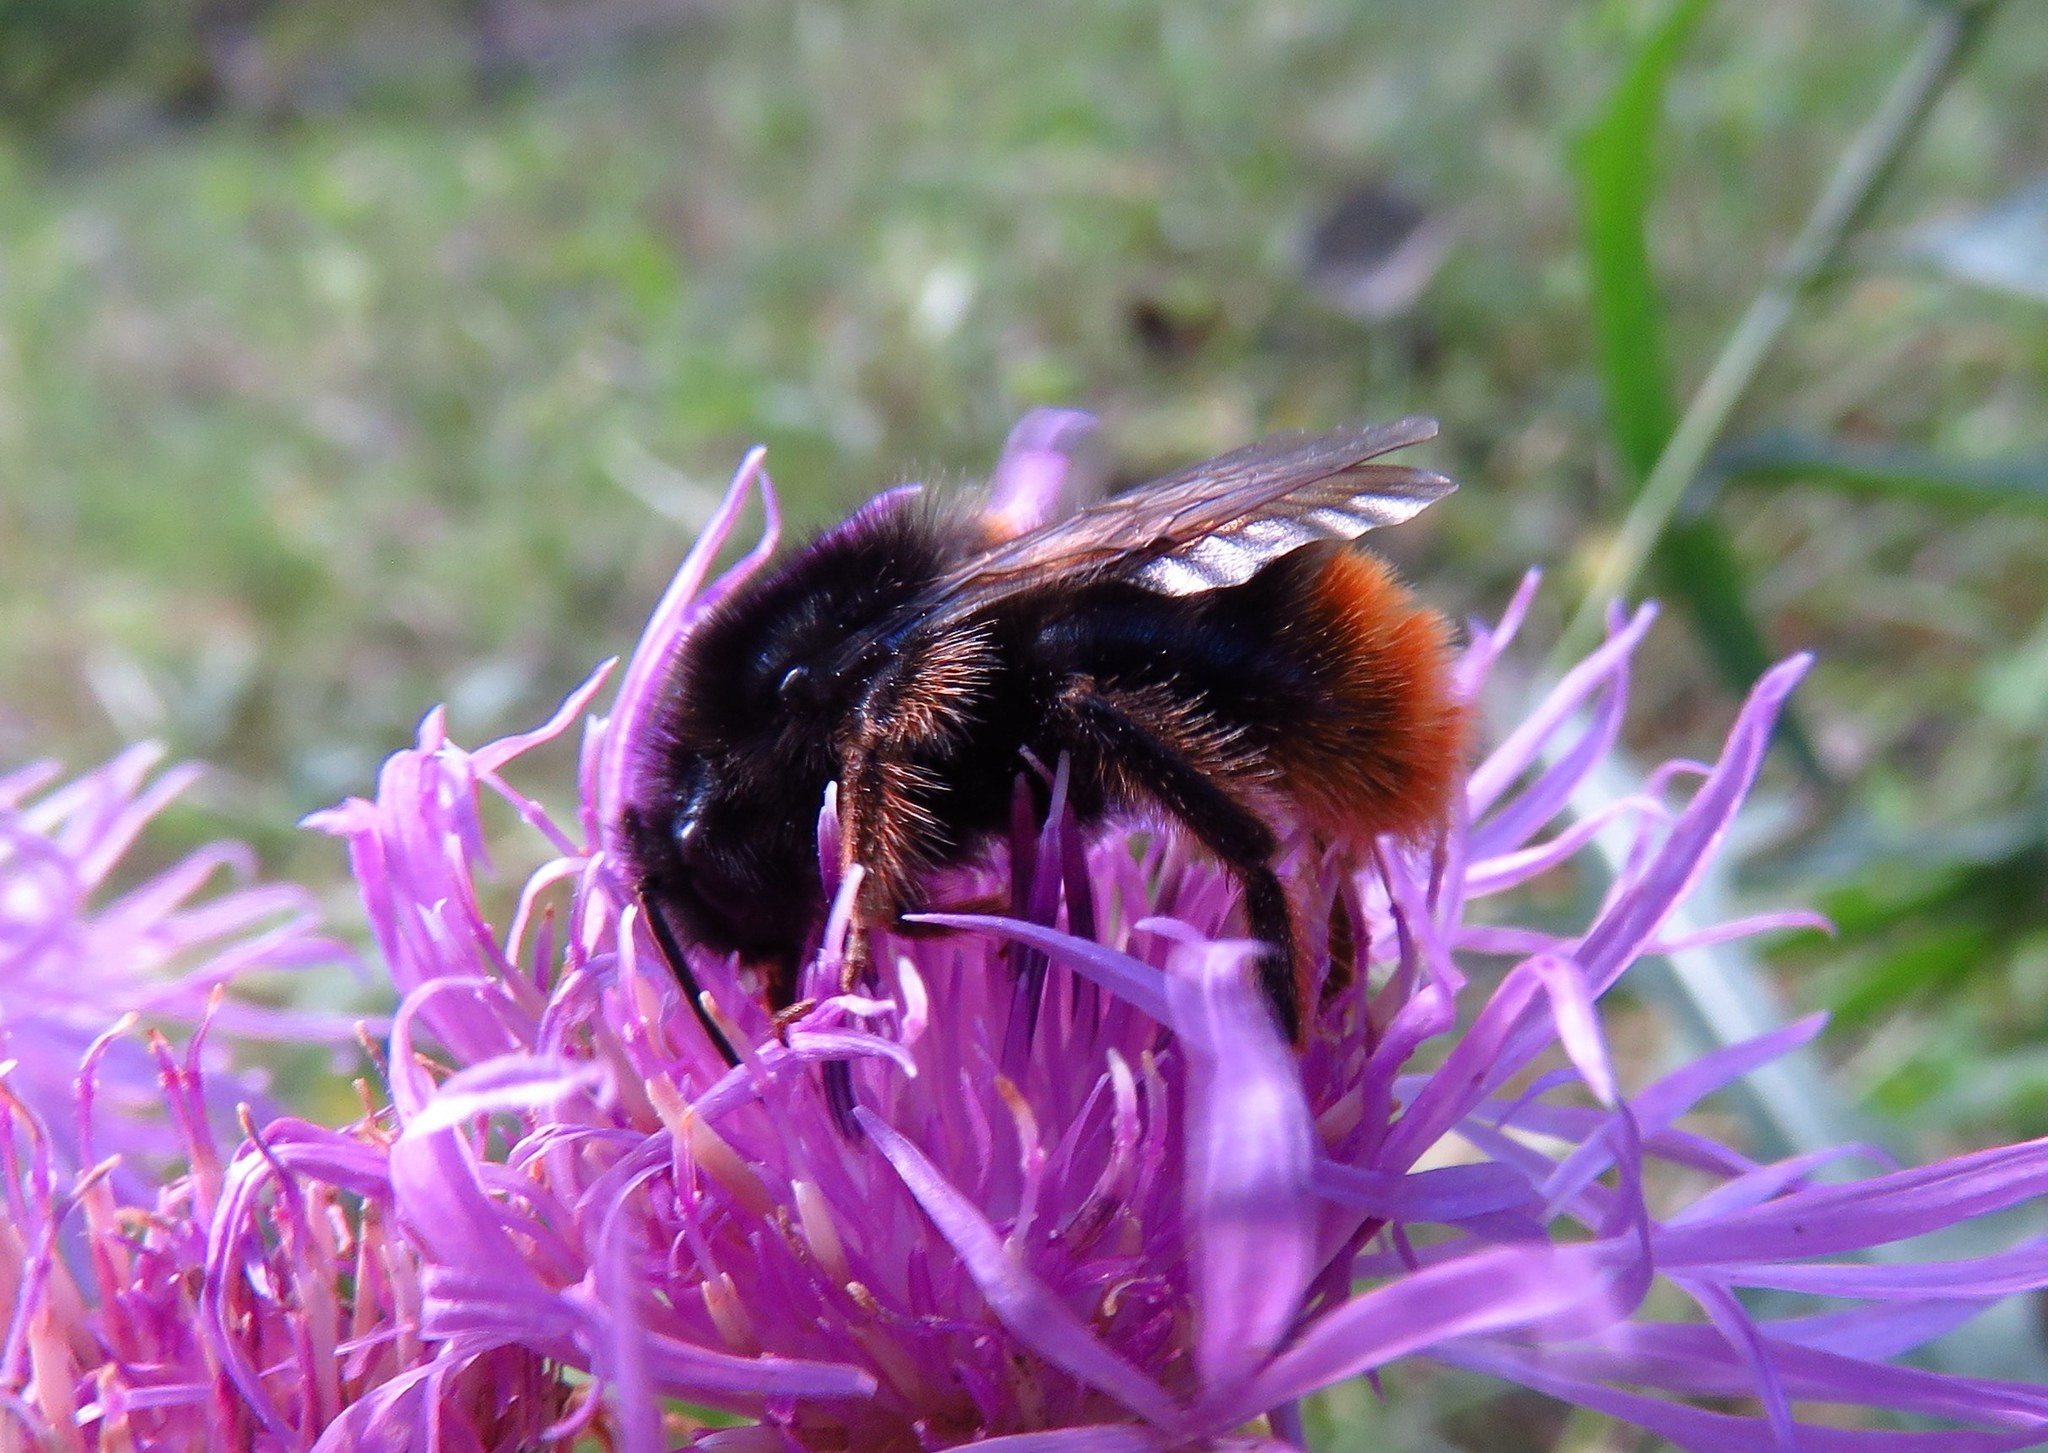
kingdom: Animalia
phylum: Arthropoda
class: Insecta
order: Hymenoptera
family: Apidae
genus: Bombus
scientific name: Bombus rupestris
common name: Hill cuckoo-bee
